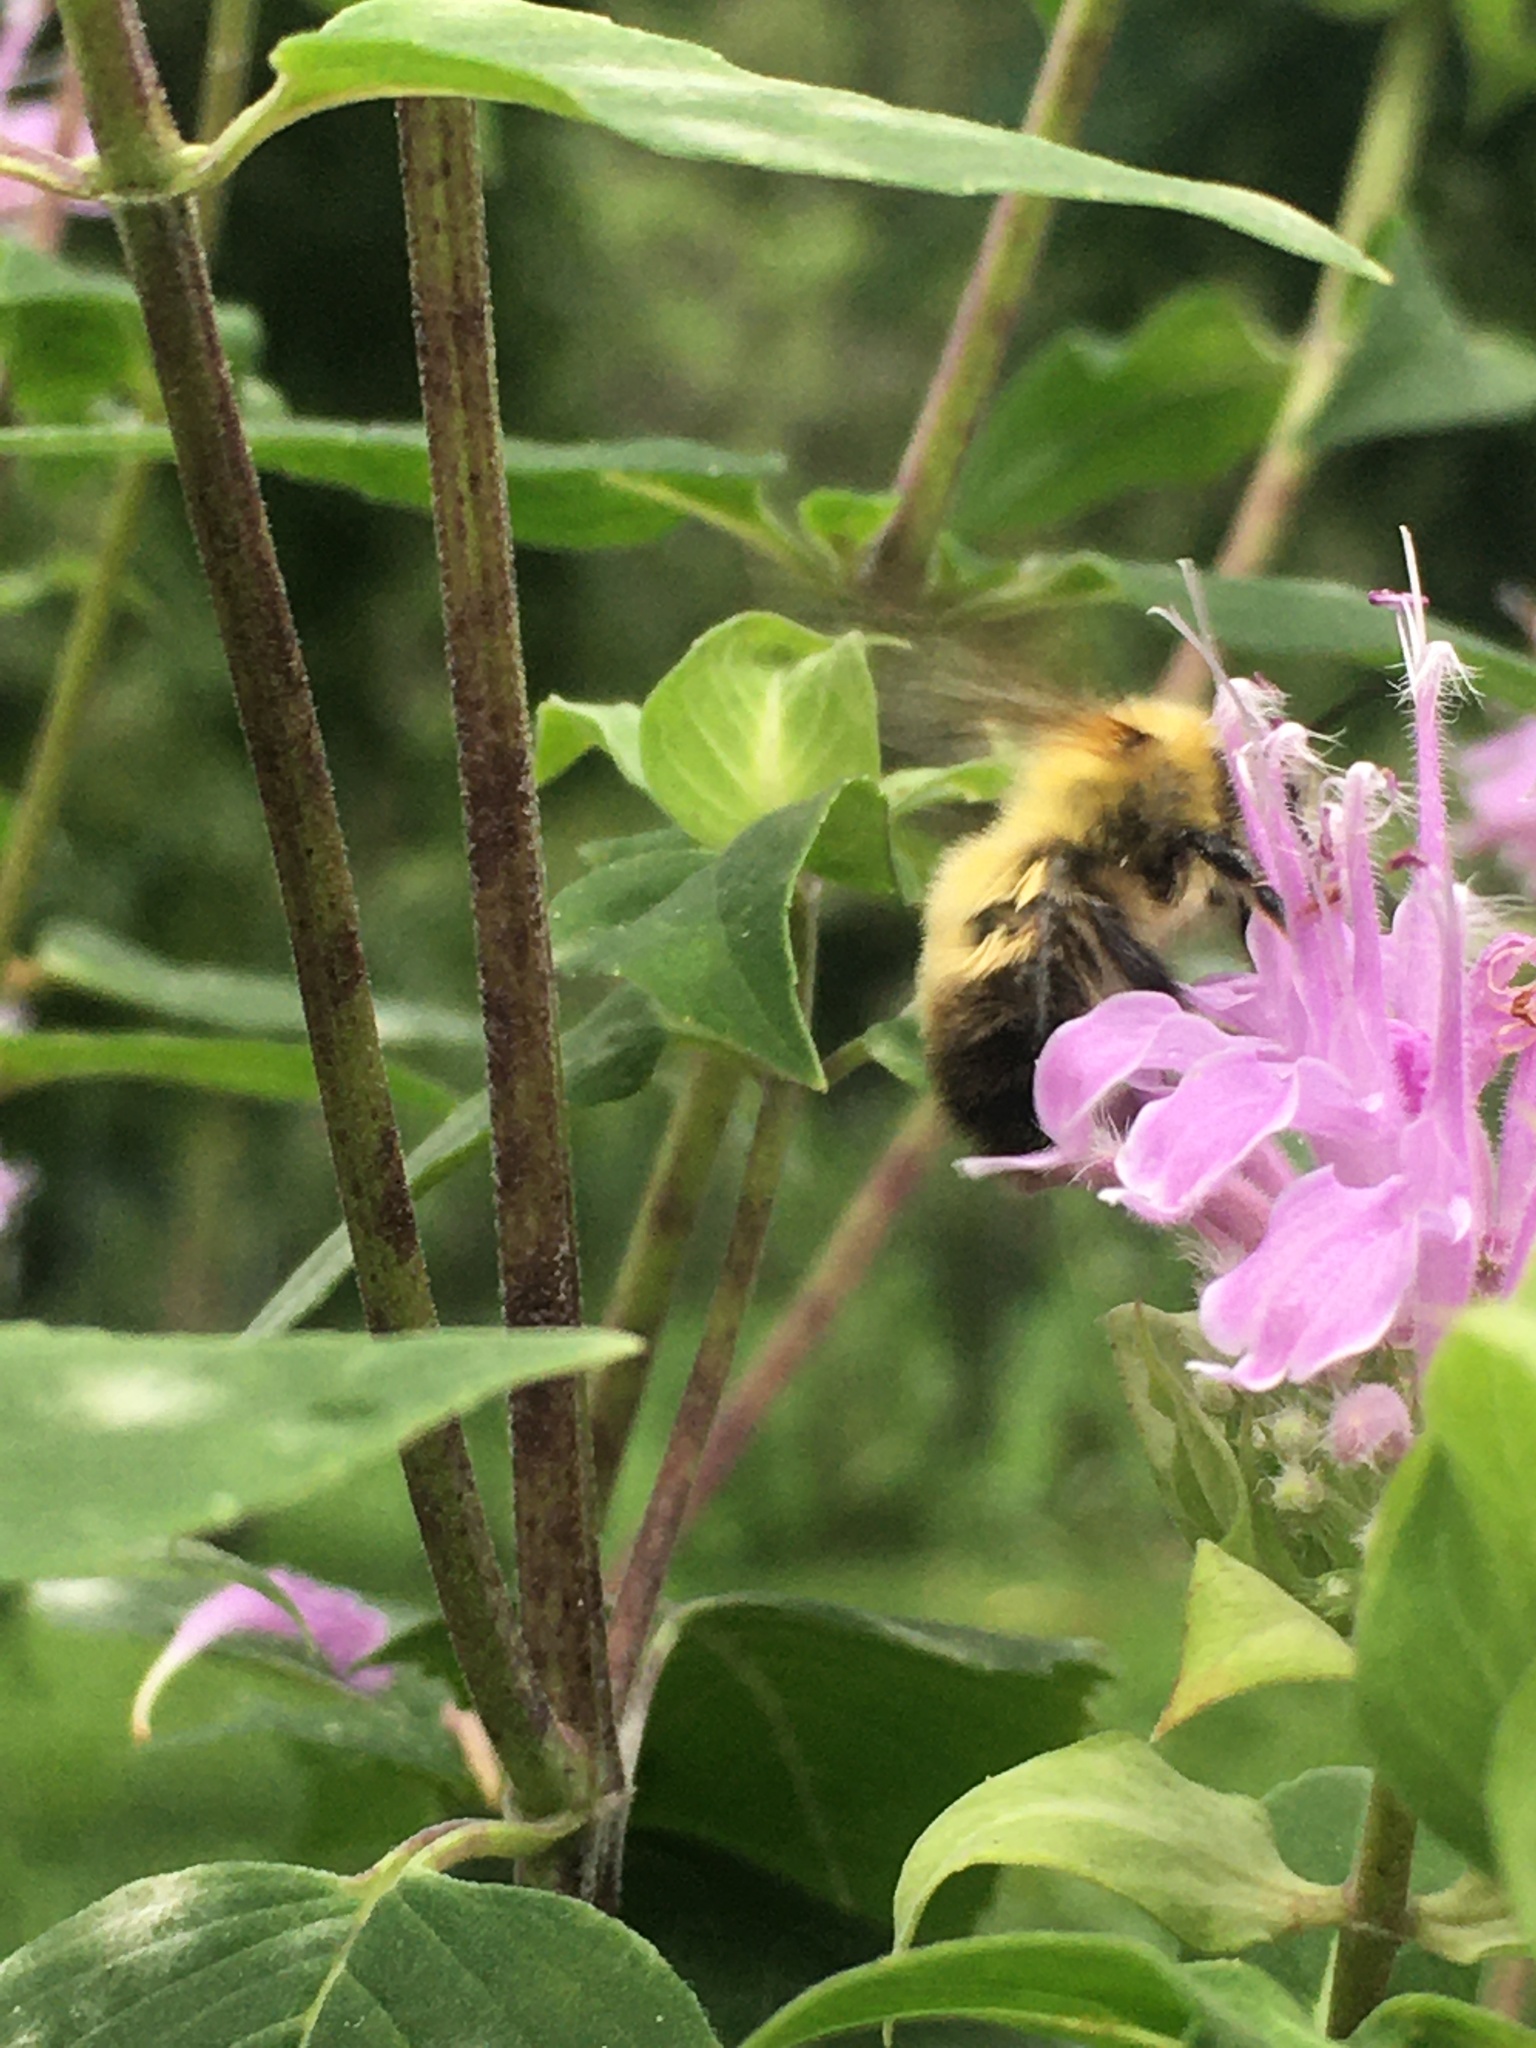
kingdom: Animalia
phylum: Arthropoda
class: Insecta
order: Hymenoptera
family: Apidae
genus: Bombus
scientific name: Bombus perplexus
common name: Confusing bumble bee
